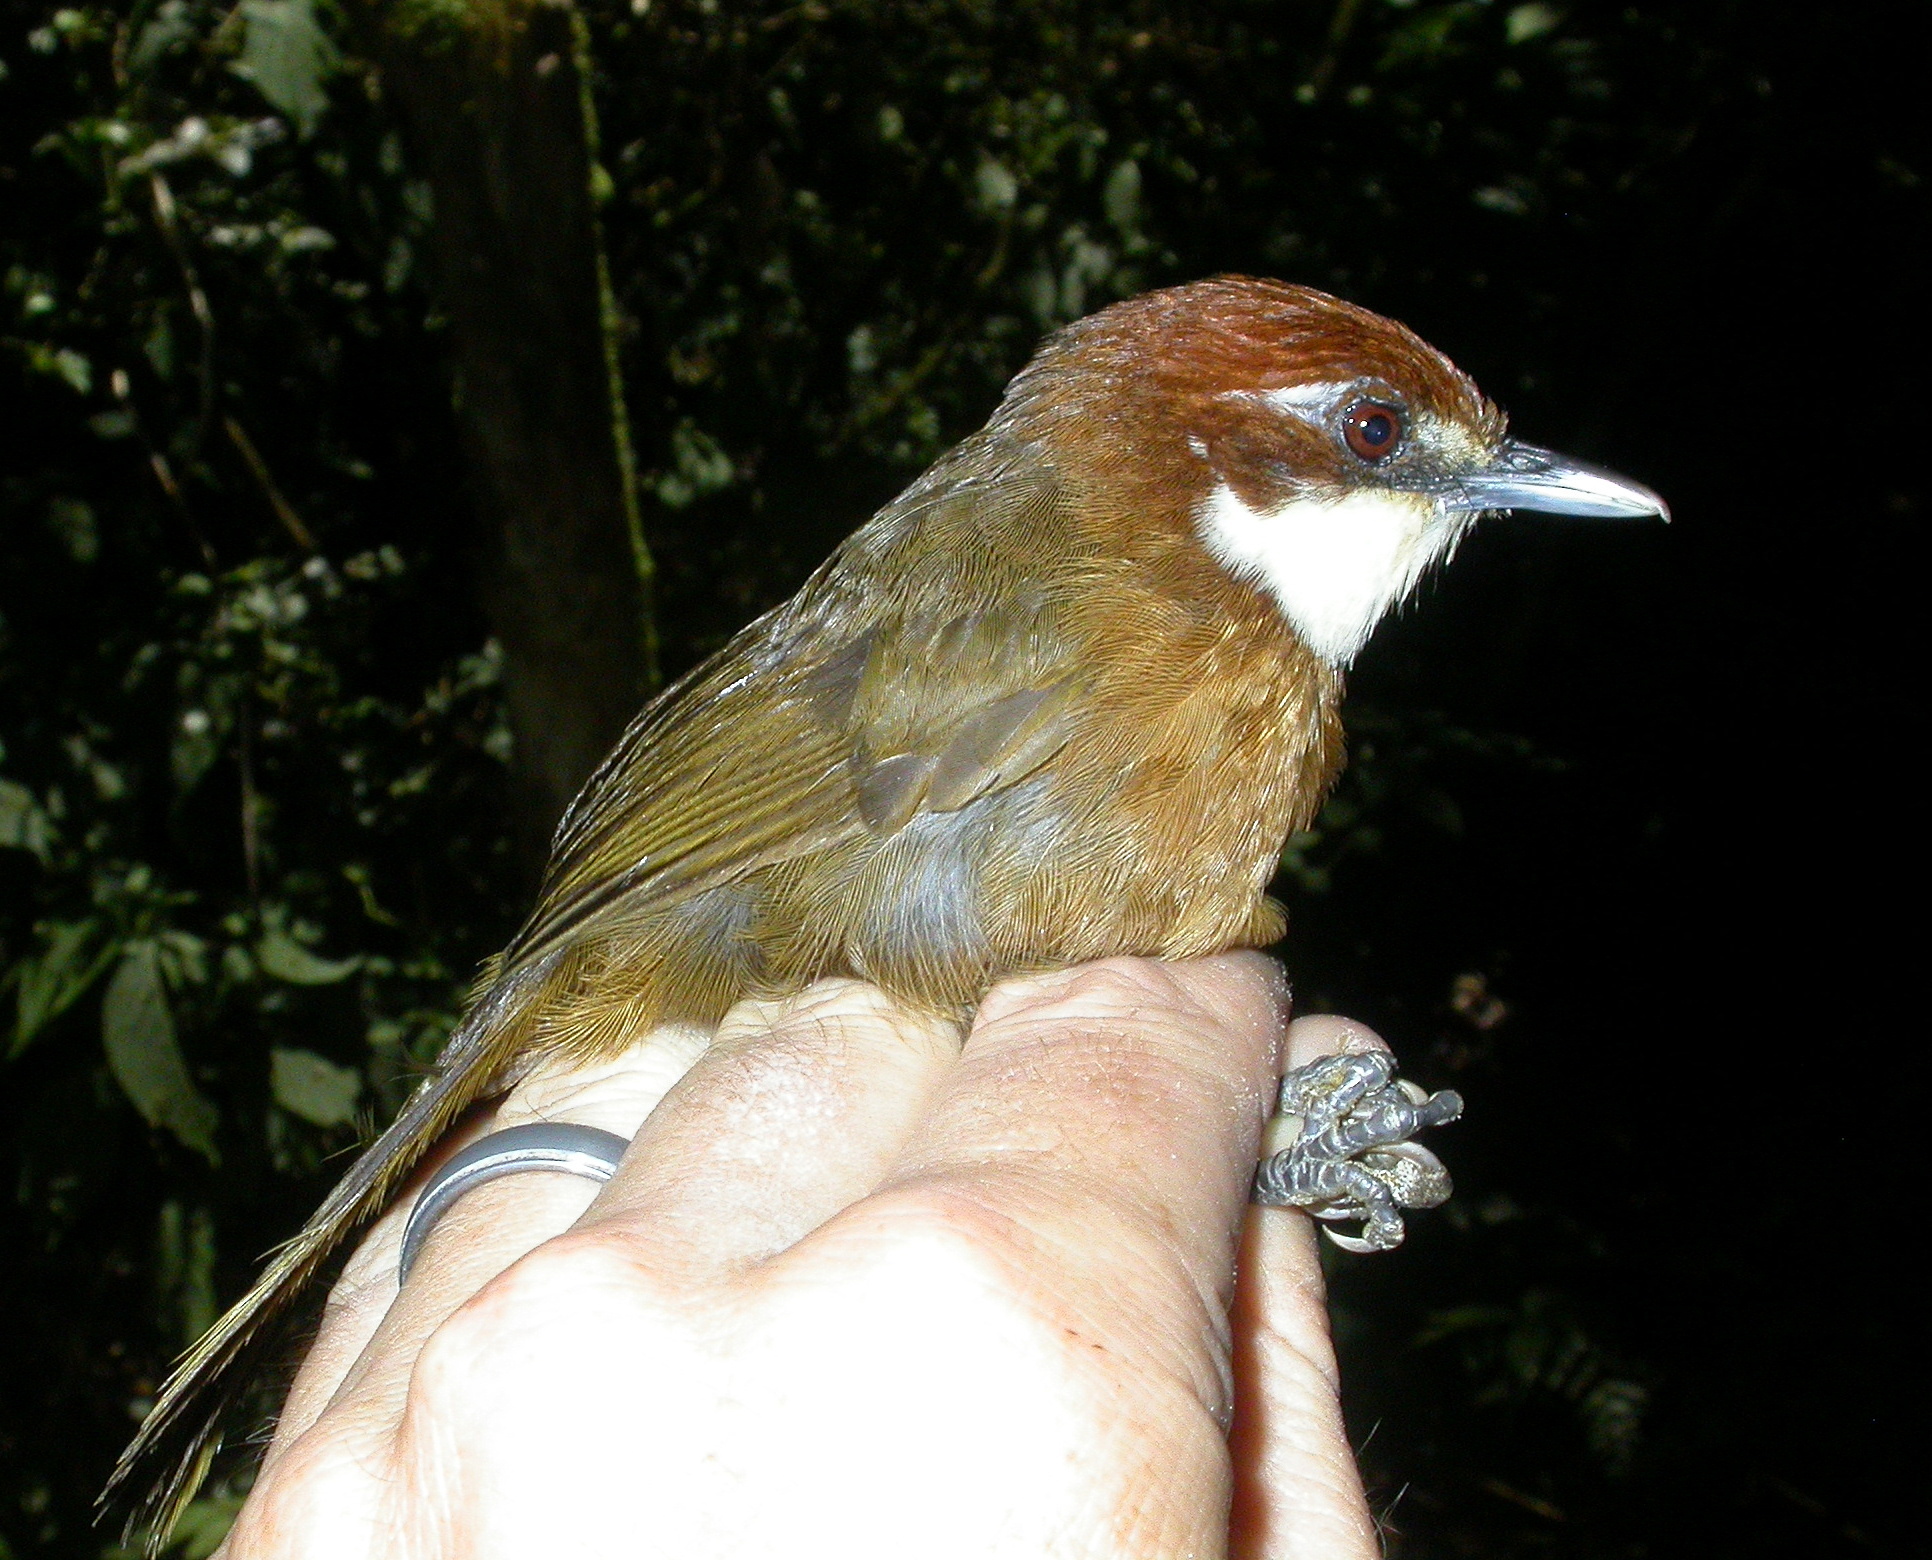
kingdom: Animalia
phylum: Chordata
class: Aves
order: Passeriformes
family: Bernieridae
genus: Oxylabes
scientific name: Oxylabes madagascariensis
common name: White-throated oxylabes
